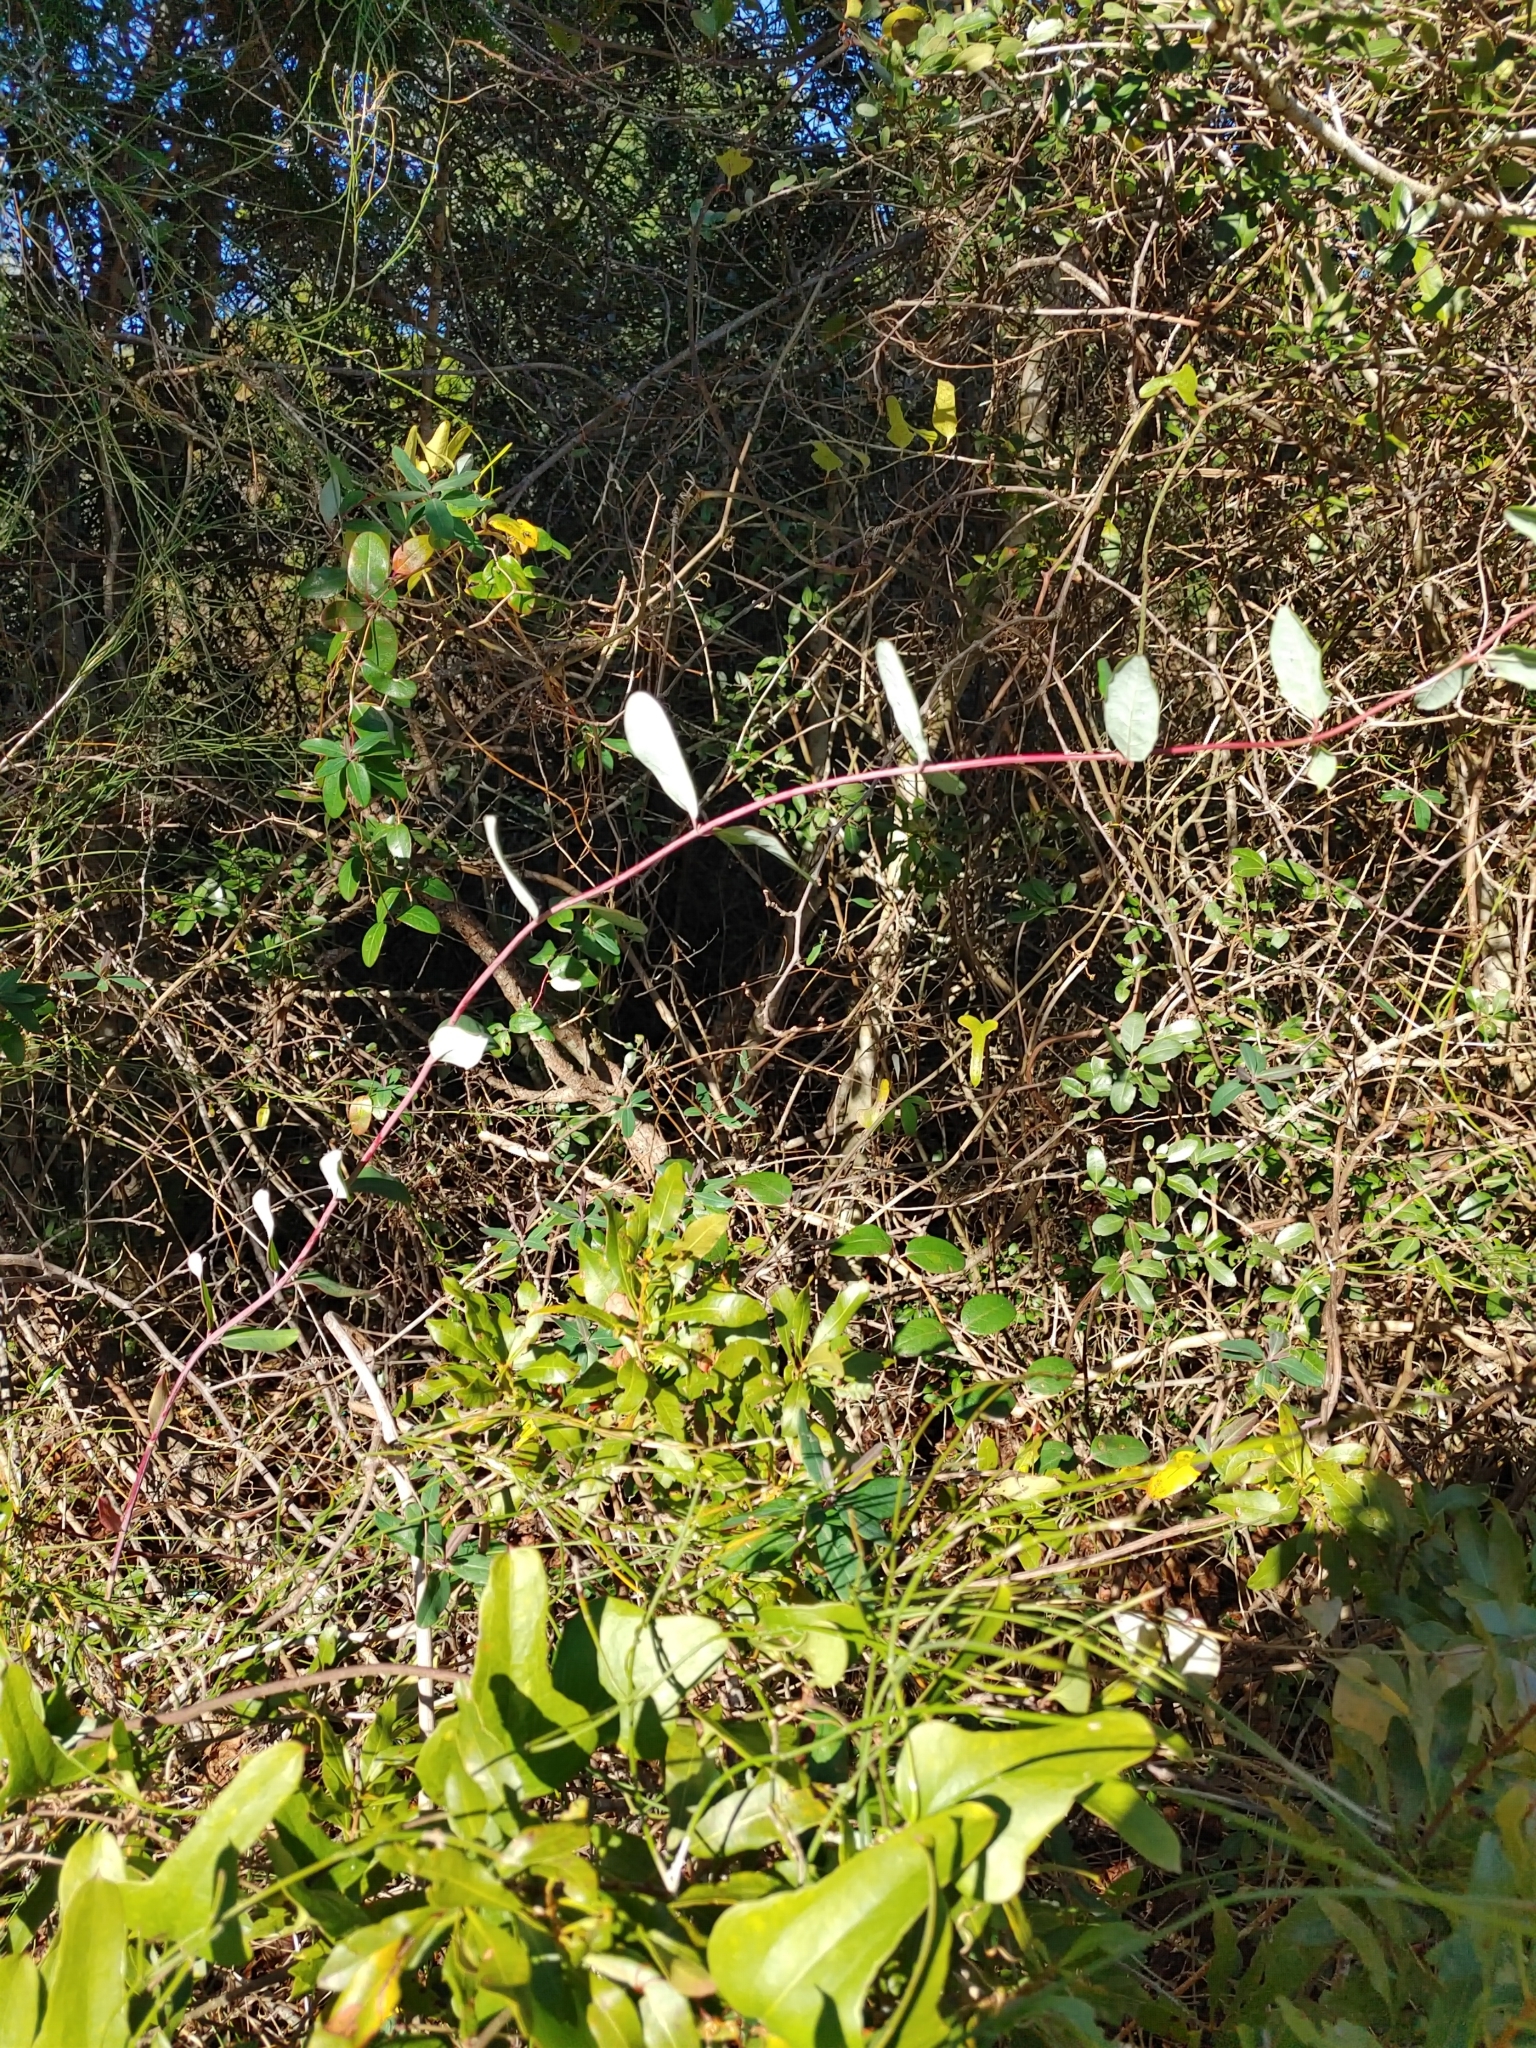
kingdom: Plantae
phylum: Tracheophyta
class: Magnoliopsida
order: Dipsacales
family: Caprifoliaceae
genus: Lonicera
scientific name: Lonicera sempervirens
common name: Coral honeysuckle
